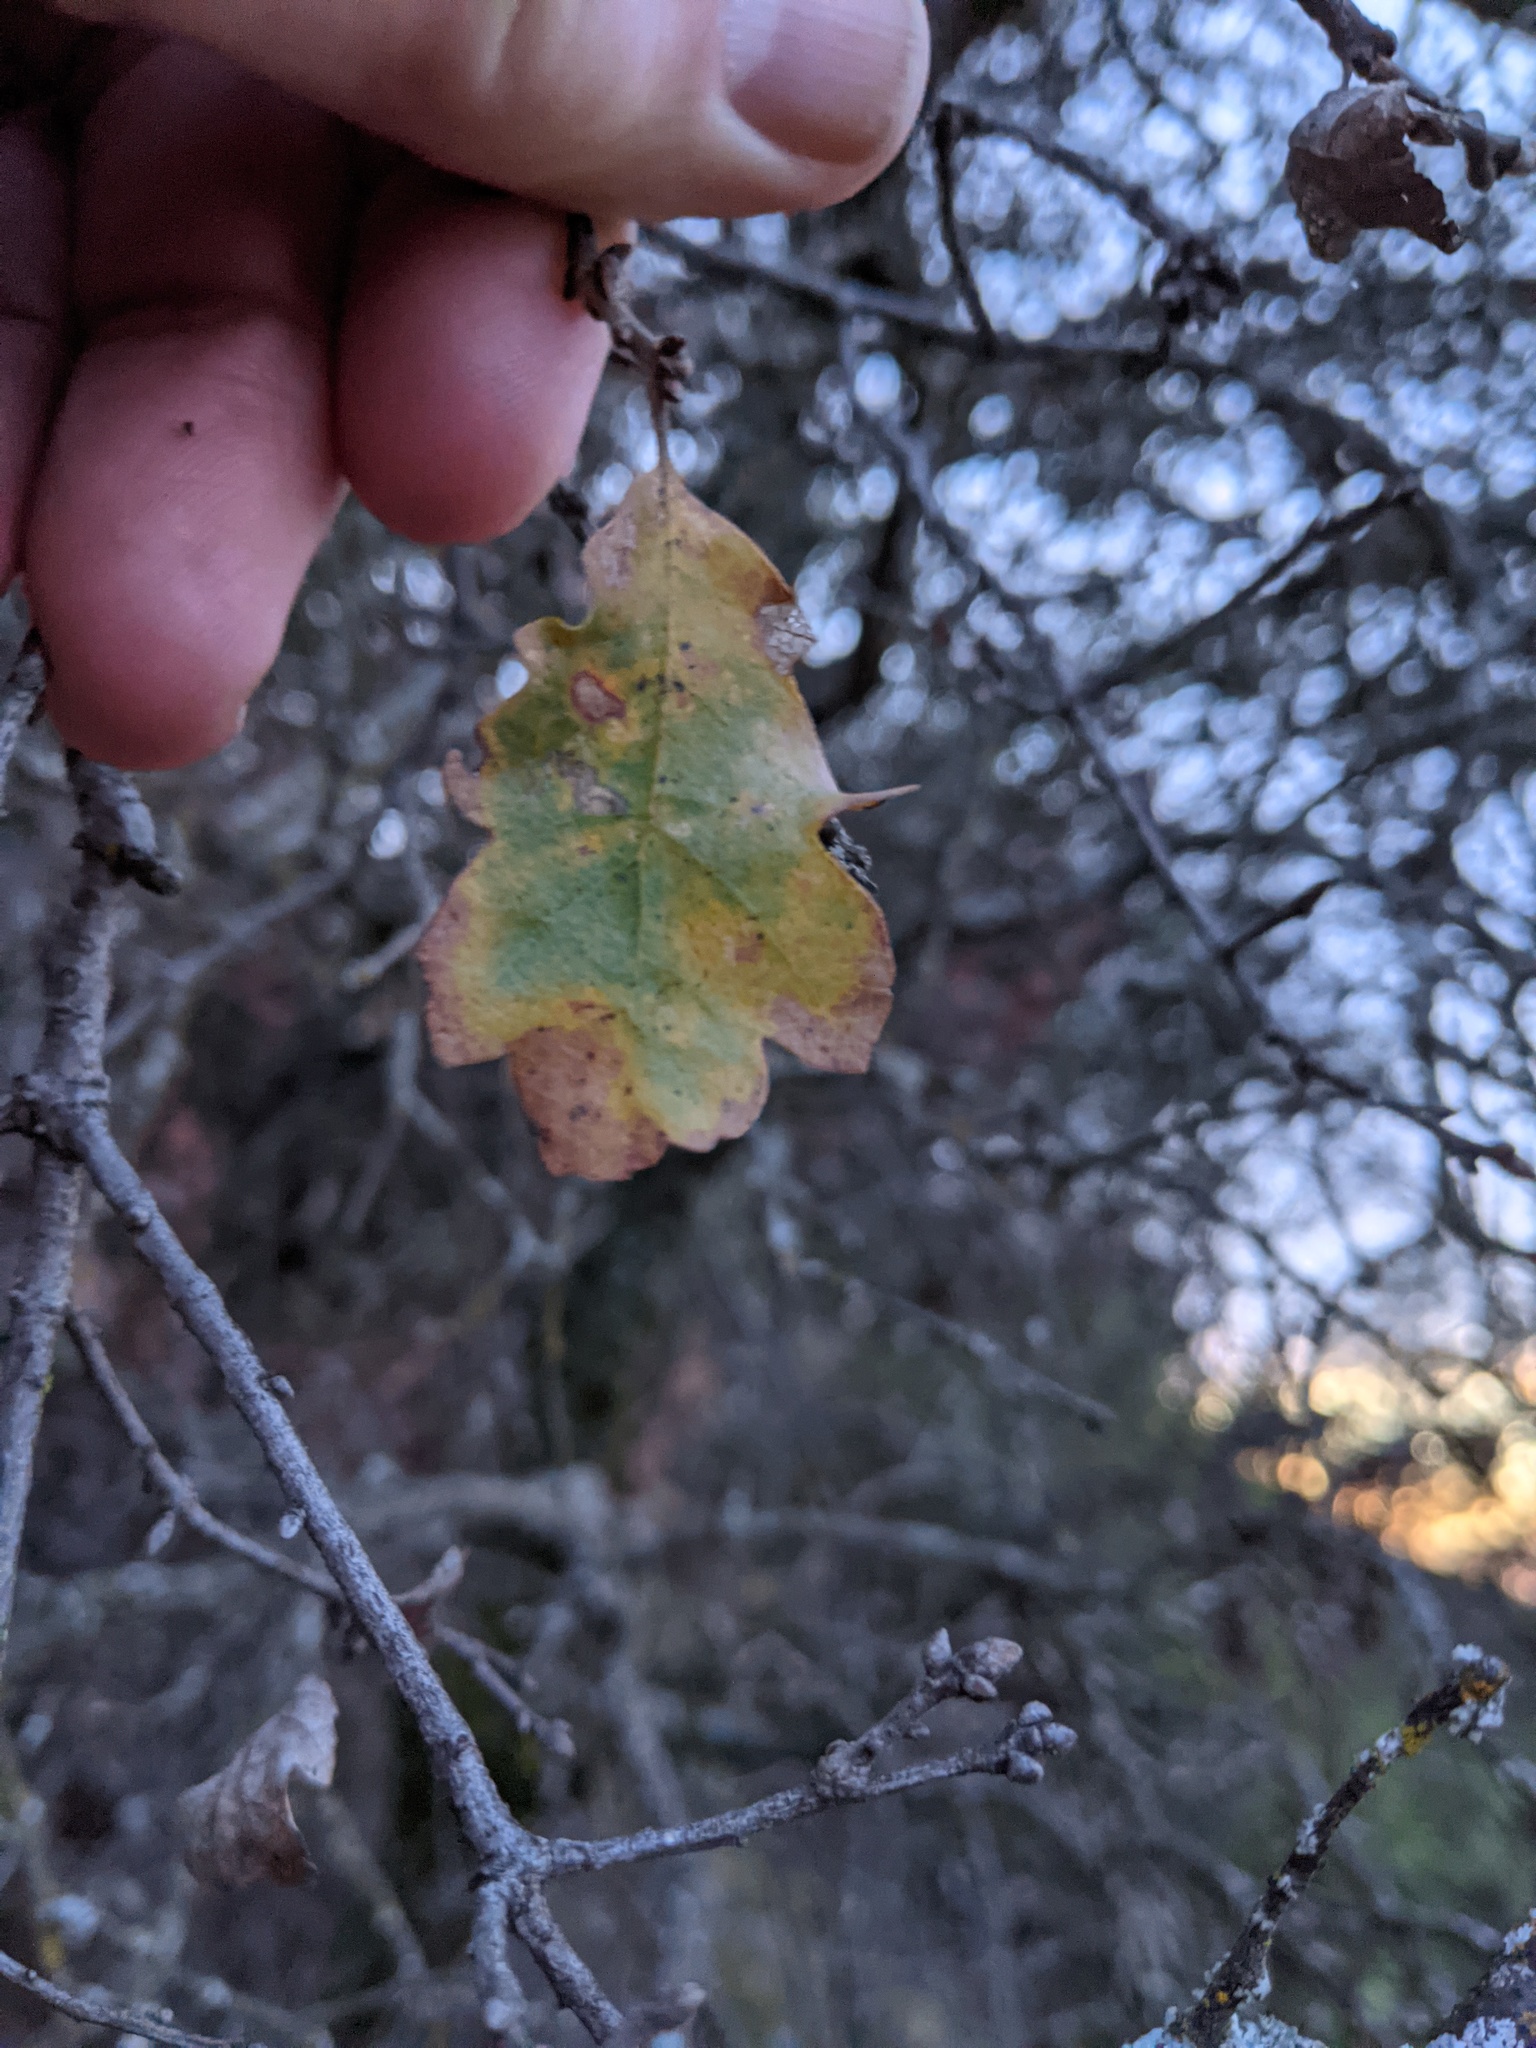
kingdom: Plantae
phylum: Tracheophyta
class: Magnoliopsida
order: Fagales
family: Fagaceae
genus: Quercus
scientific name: Quercus douglasii
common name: Blue oak
